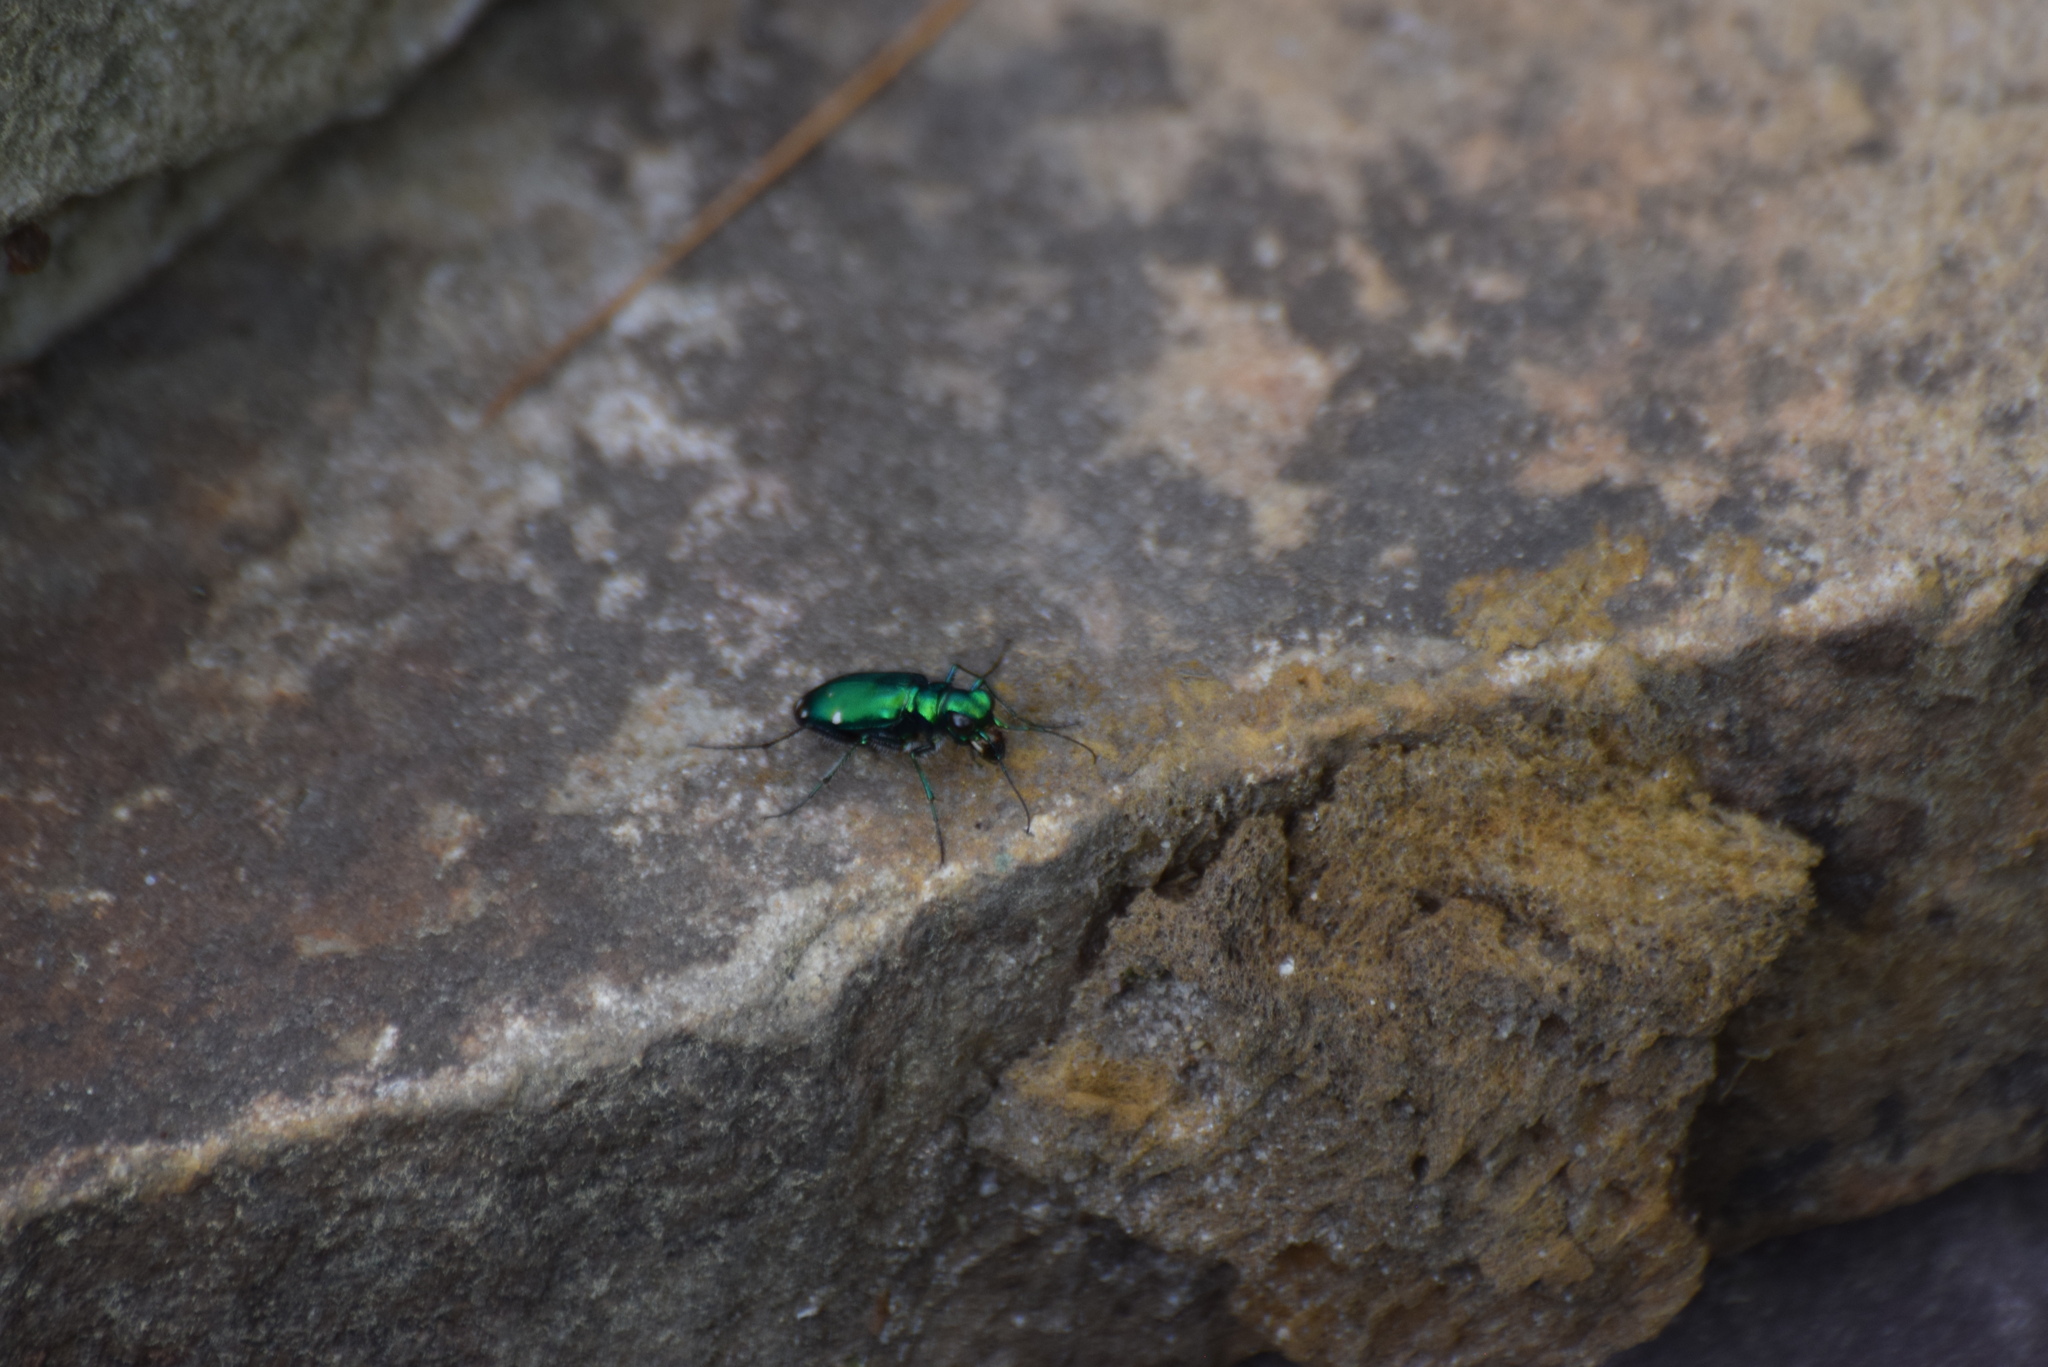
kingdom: Animalia
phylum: Arthropoda
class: Insecta
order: Coleoptera
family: Carabidae
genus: Cicindela
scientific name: Cicindela sexguttata
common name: Six-spotted tiger beetle
